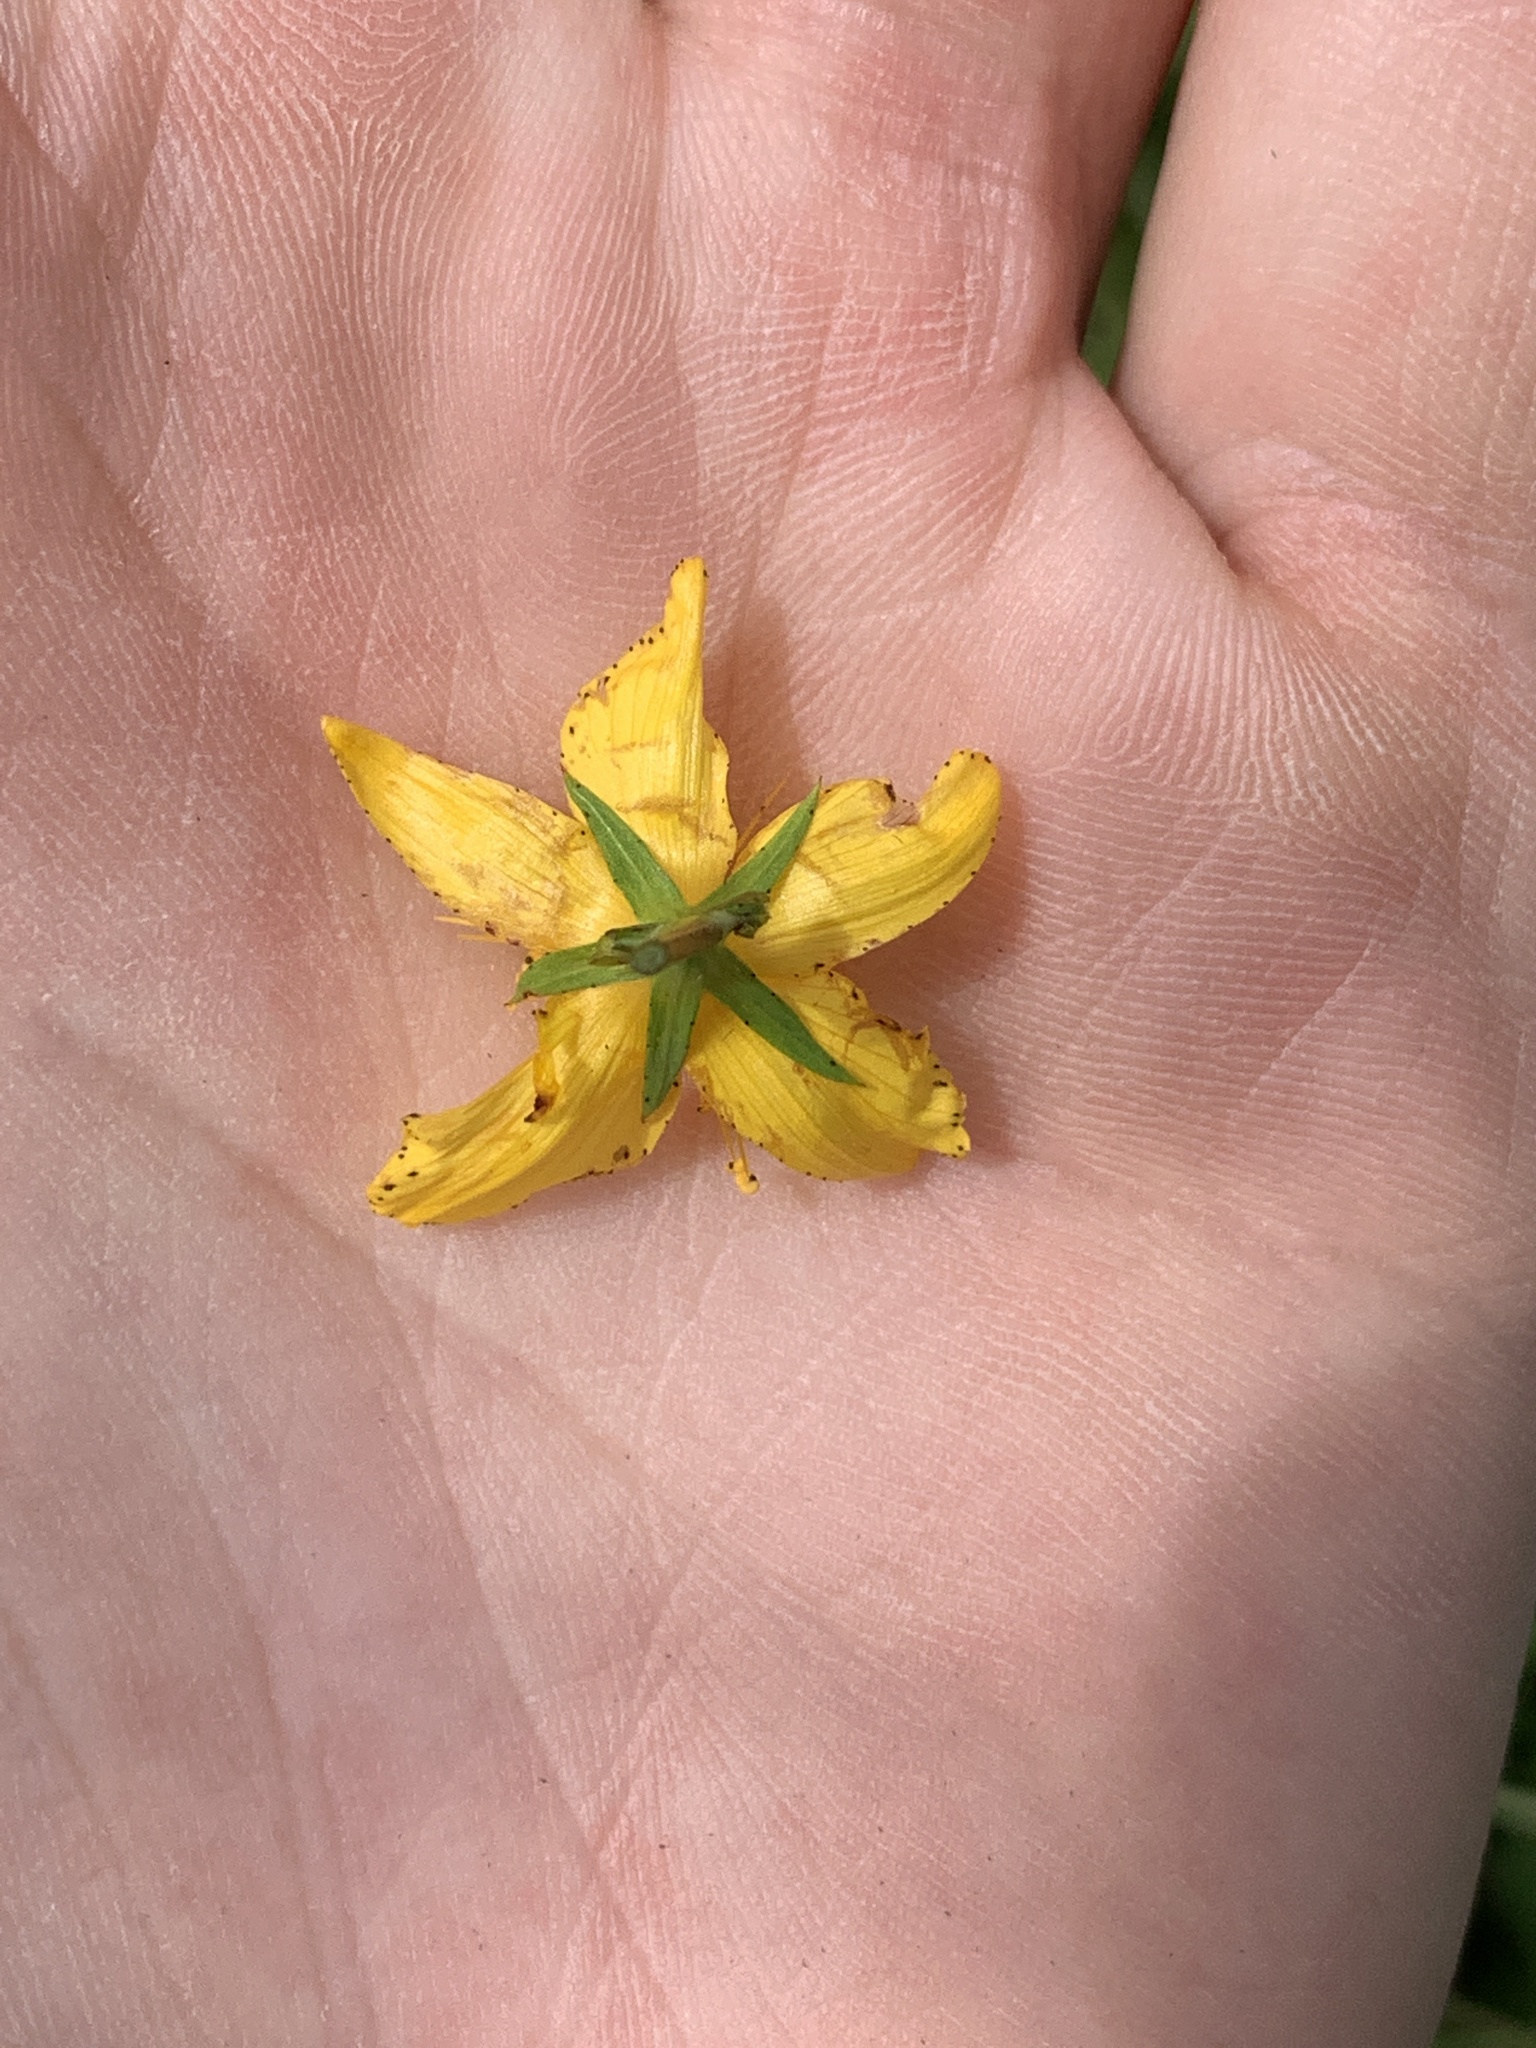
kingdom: Plantae
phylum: Tracheophyta
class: Magnoliopsida
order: Malpighiales
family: Hypericaceae
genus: Hypericum
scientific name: Hypericum perforatum
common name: Common st. johnswort
